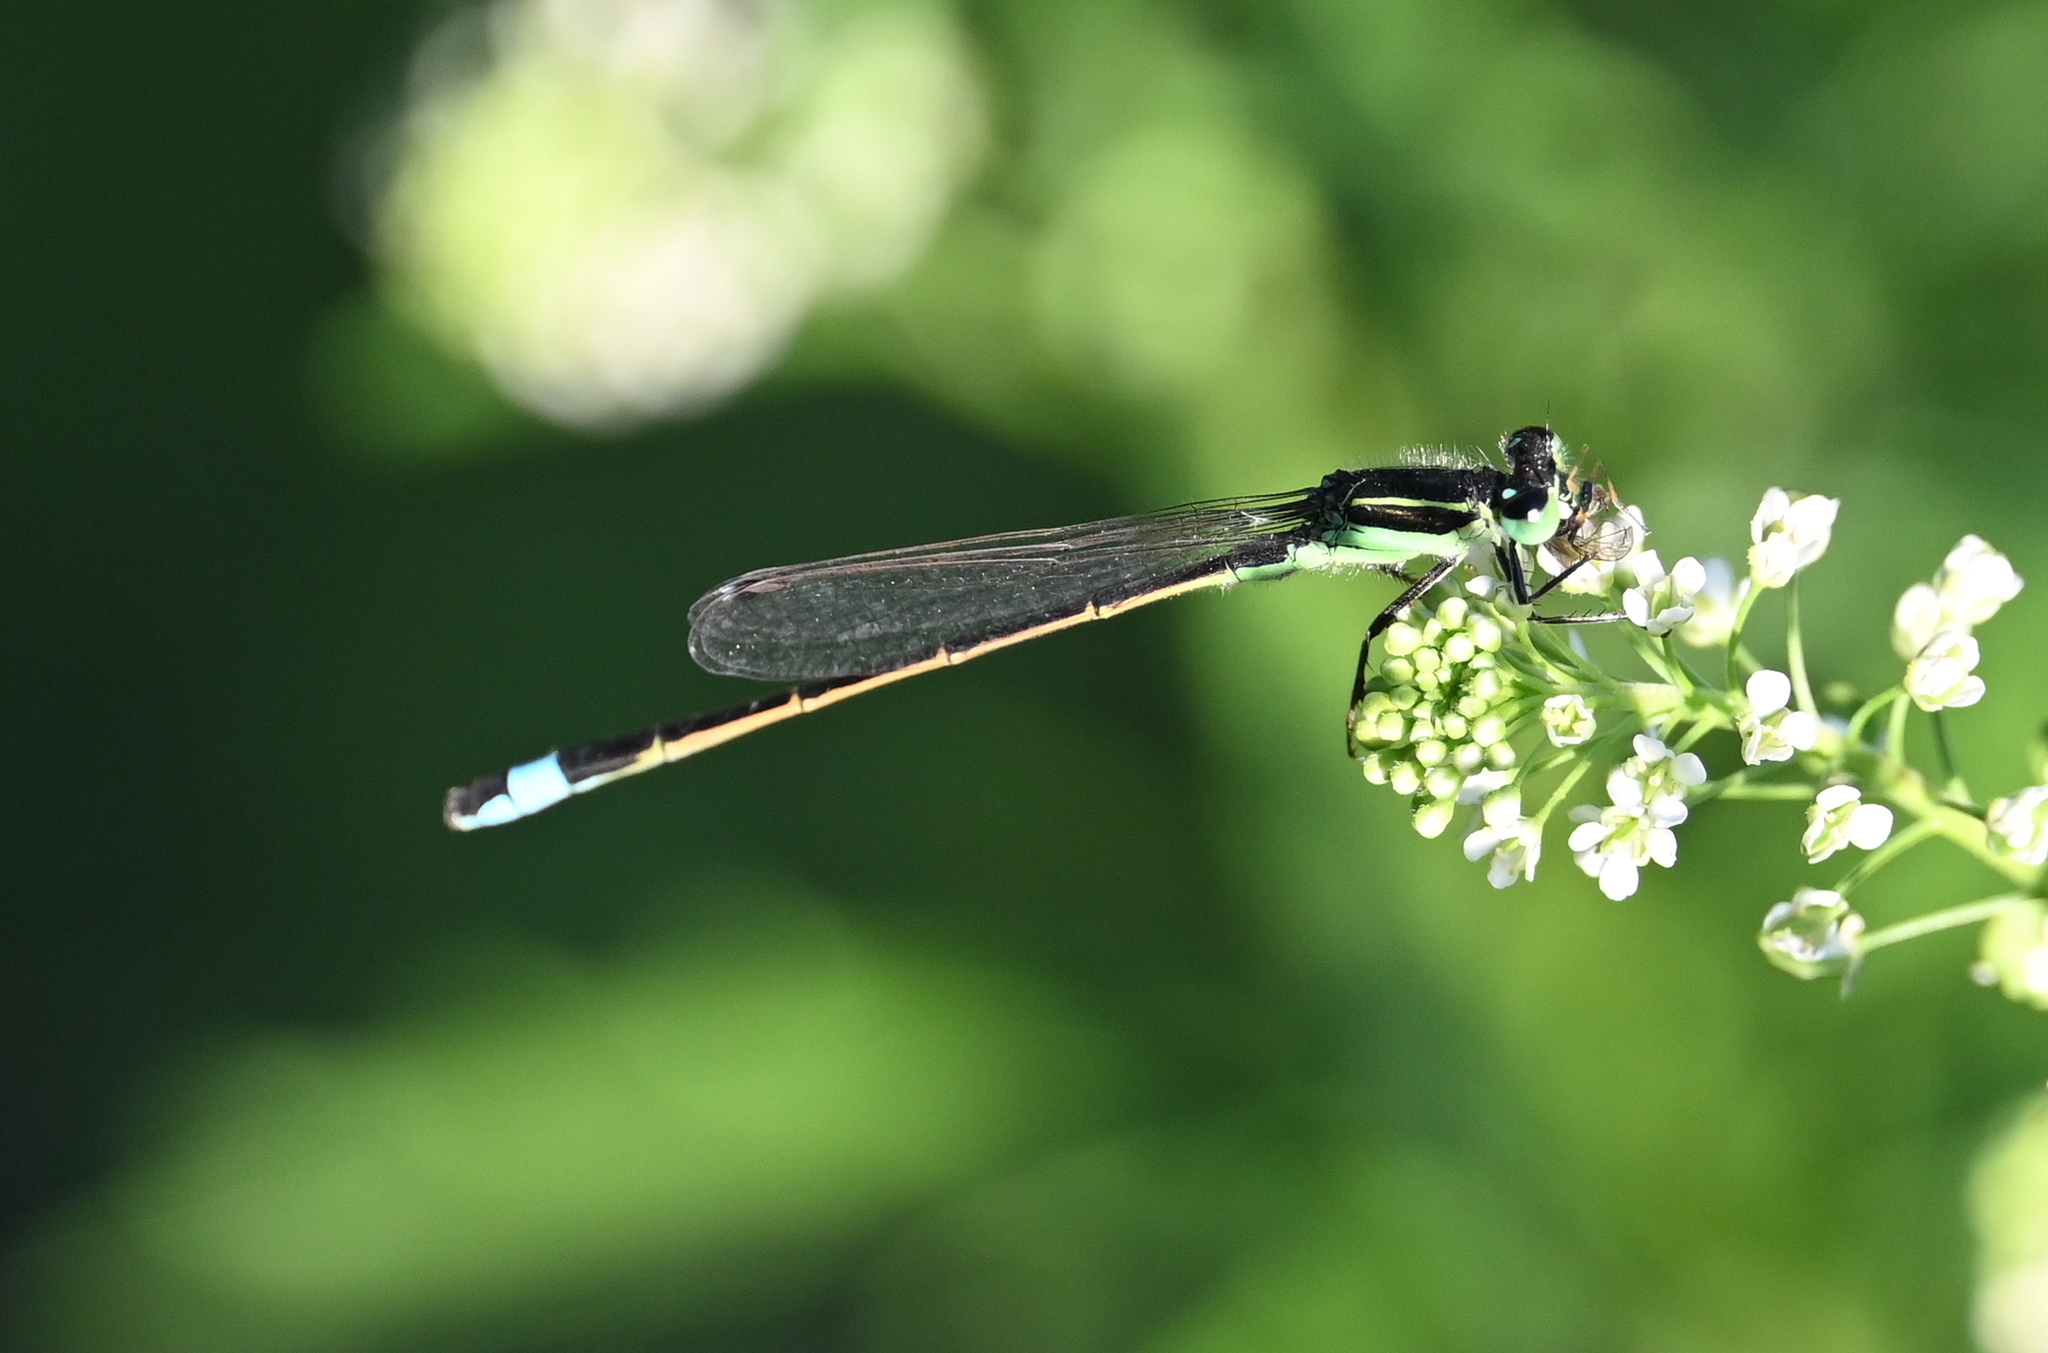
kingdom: Animalia
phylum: Arthropoda
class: Insecta
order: Odonata
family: Coenagrionidae
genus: Ischnura
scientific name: Ischnura ramburii
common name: Rambur's forktail
